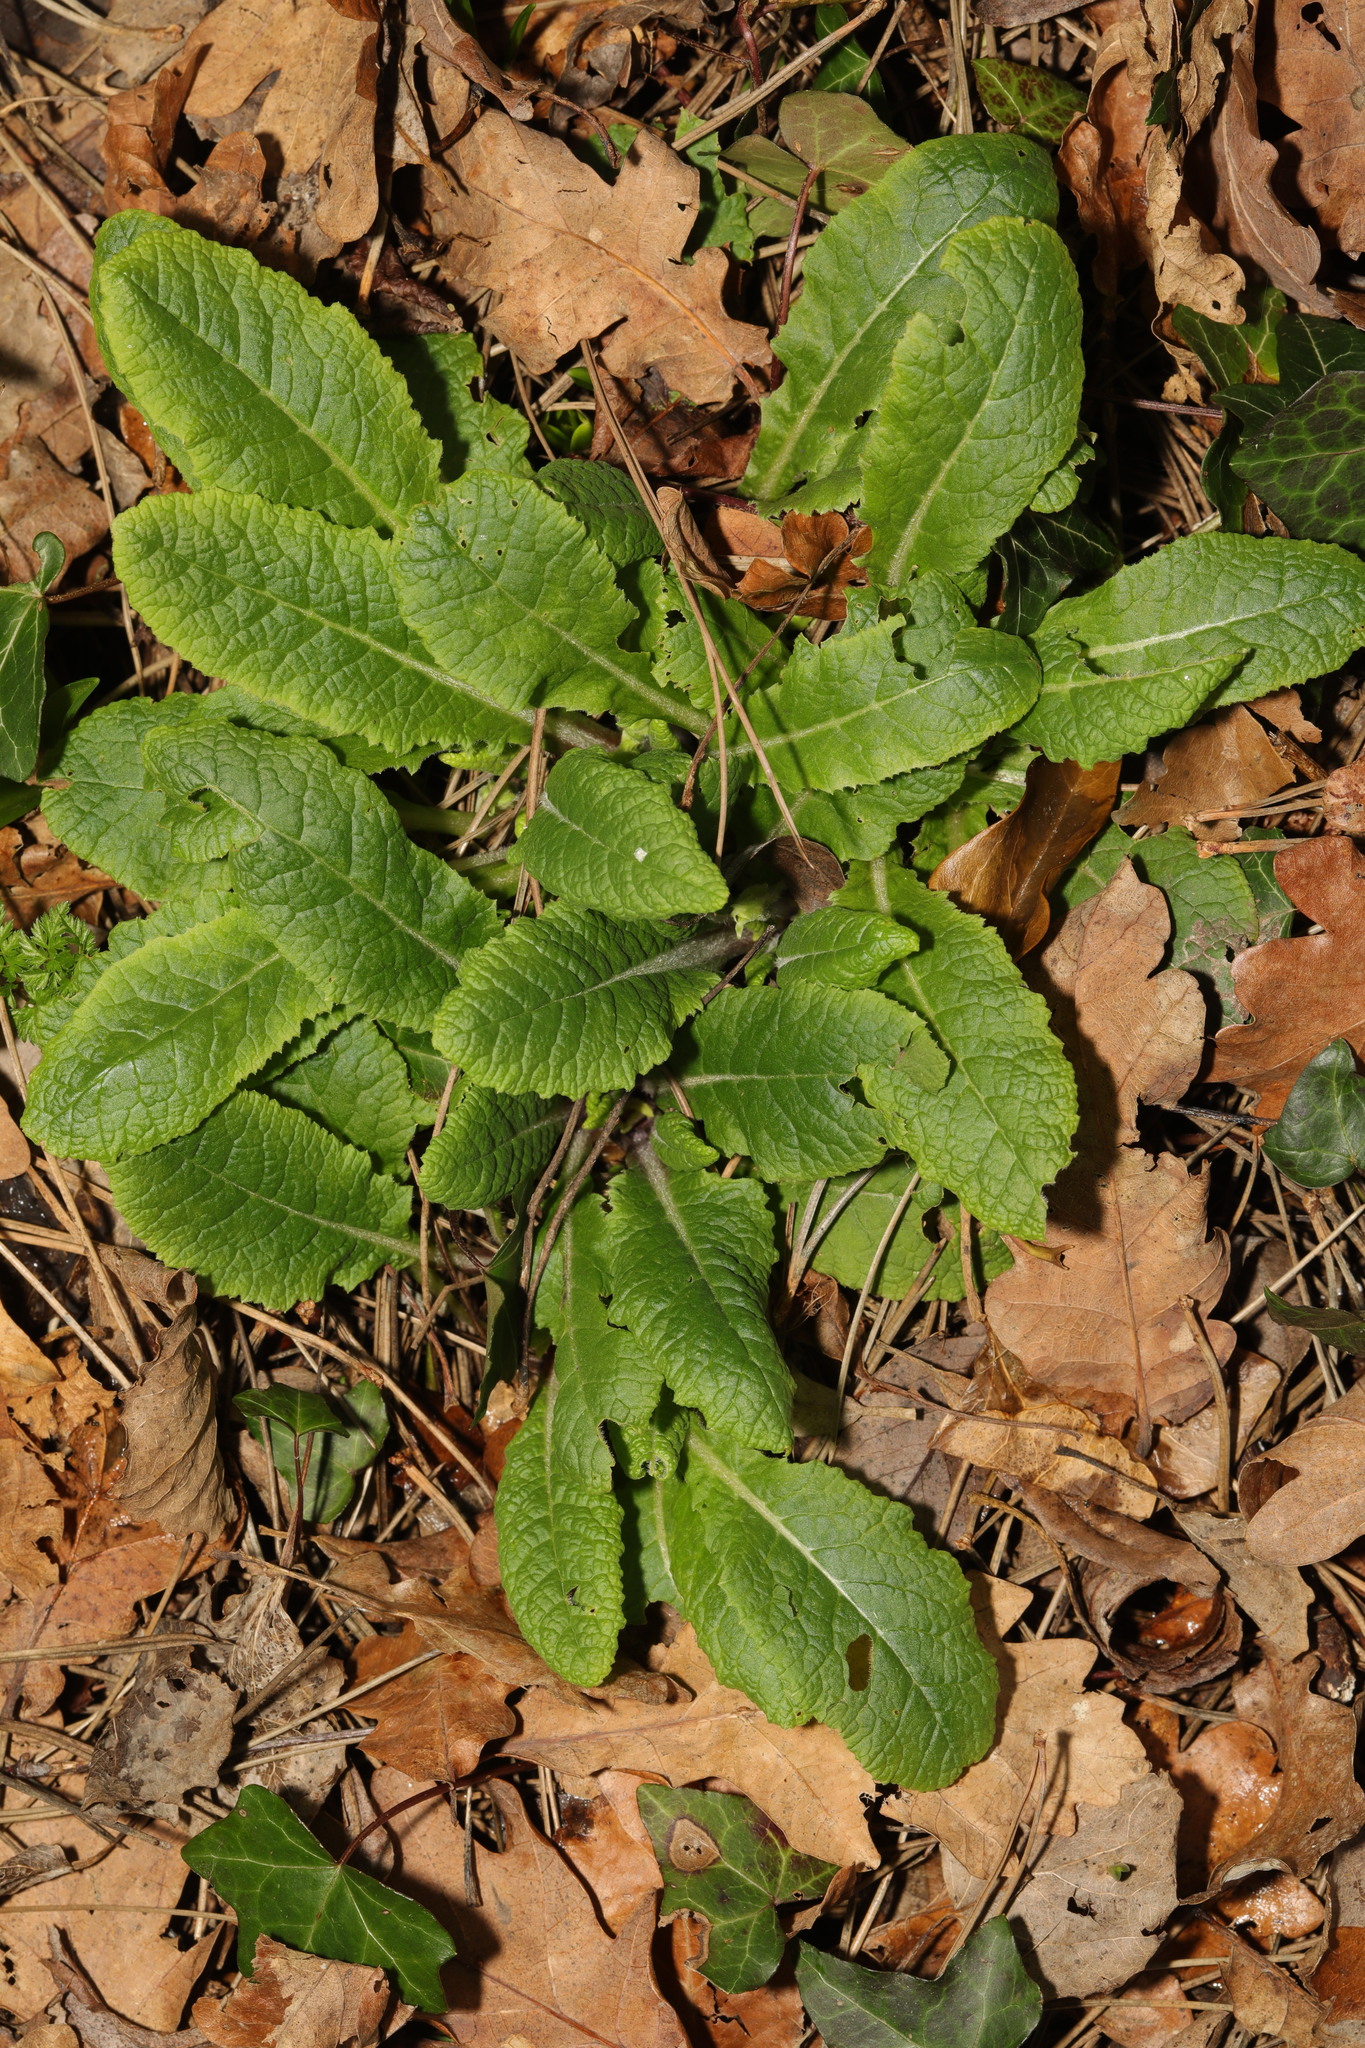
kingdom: Plantae
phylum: Tracheophyta
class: Magnoliopsida
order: Ericales
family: Primulaceae
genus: Primula
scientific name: Primula vulgaris
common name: Primrose
